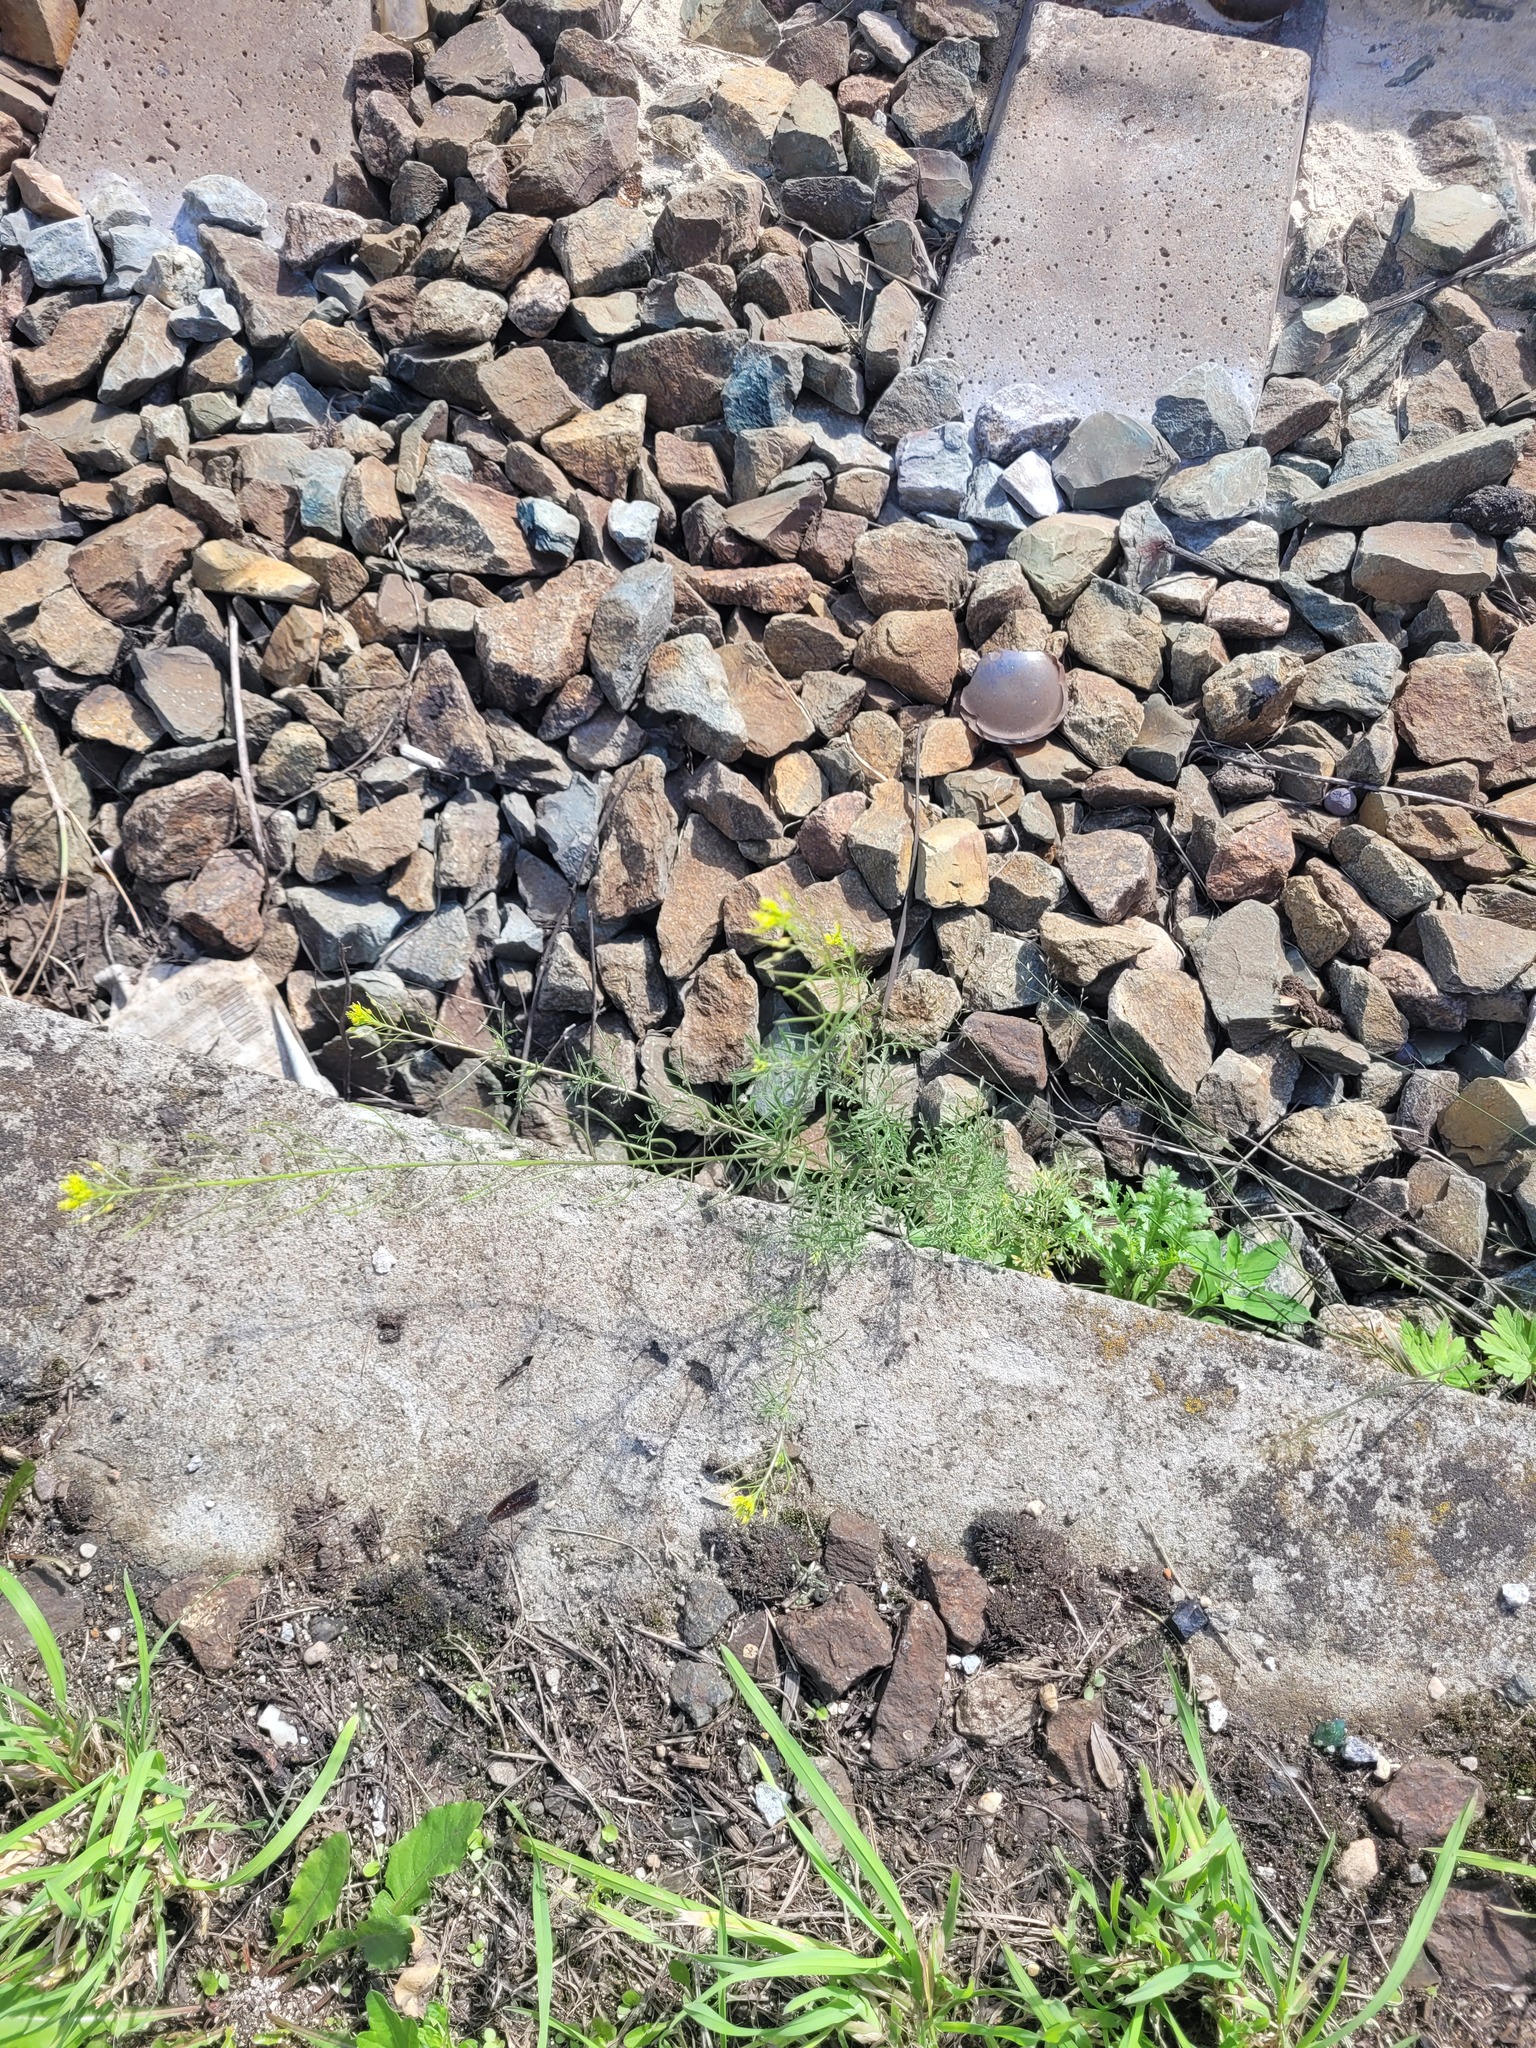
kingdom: Plantae
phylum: Tracheophyta
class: Magnoliopsida
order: Brassicales
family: Brassicaceae
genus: Descurainia
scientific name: Descurainia sophia
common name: Flixweed
